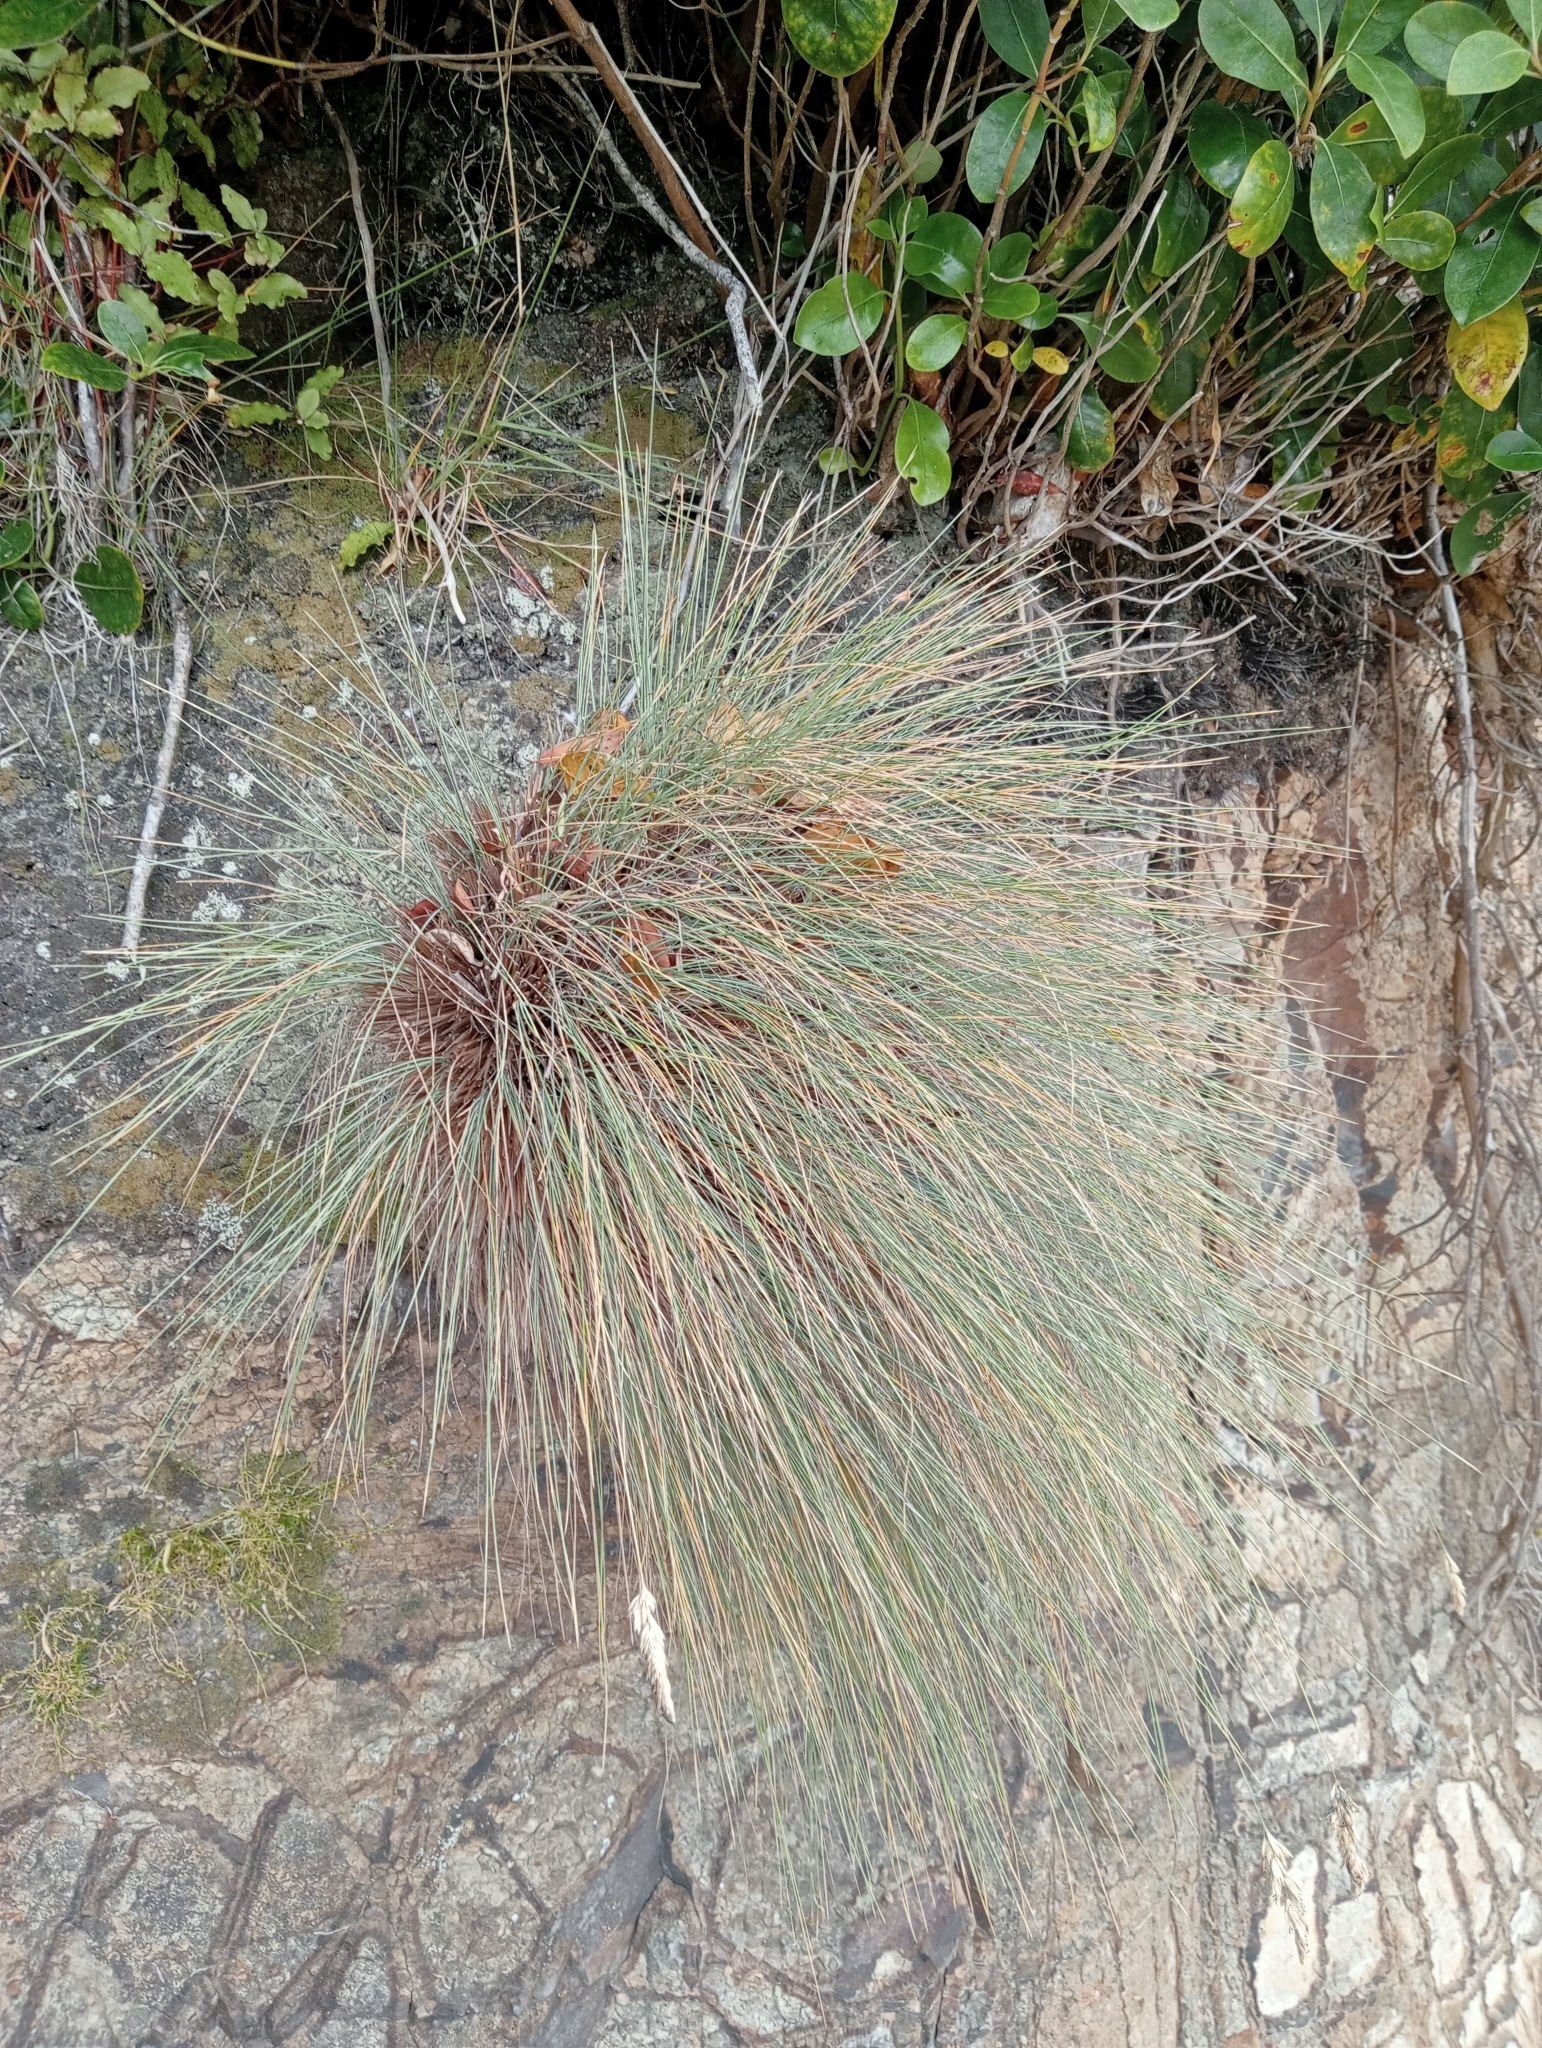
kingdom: Plantae
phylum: Tracheophyta
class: Liliopsida
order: Poales
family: Poaceae
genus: Poa
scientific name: Poa astonii
